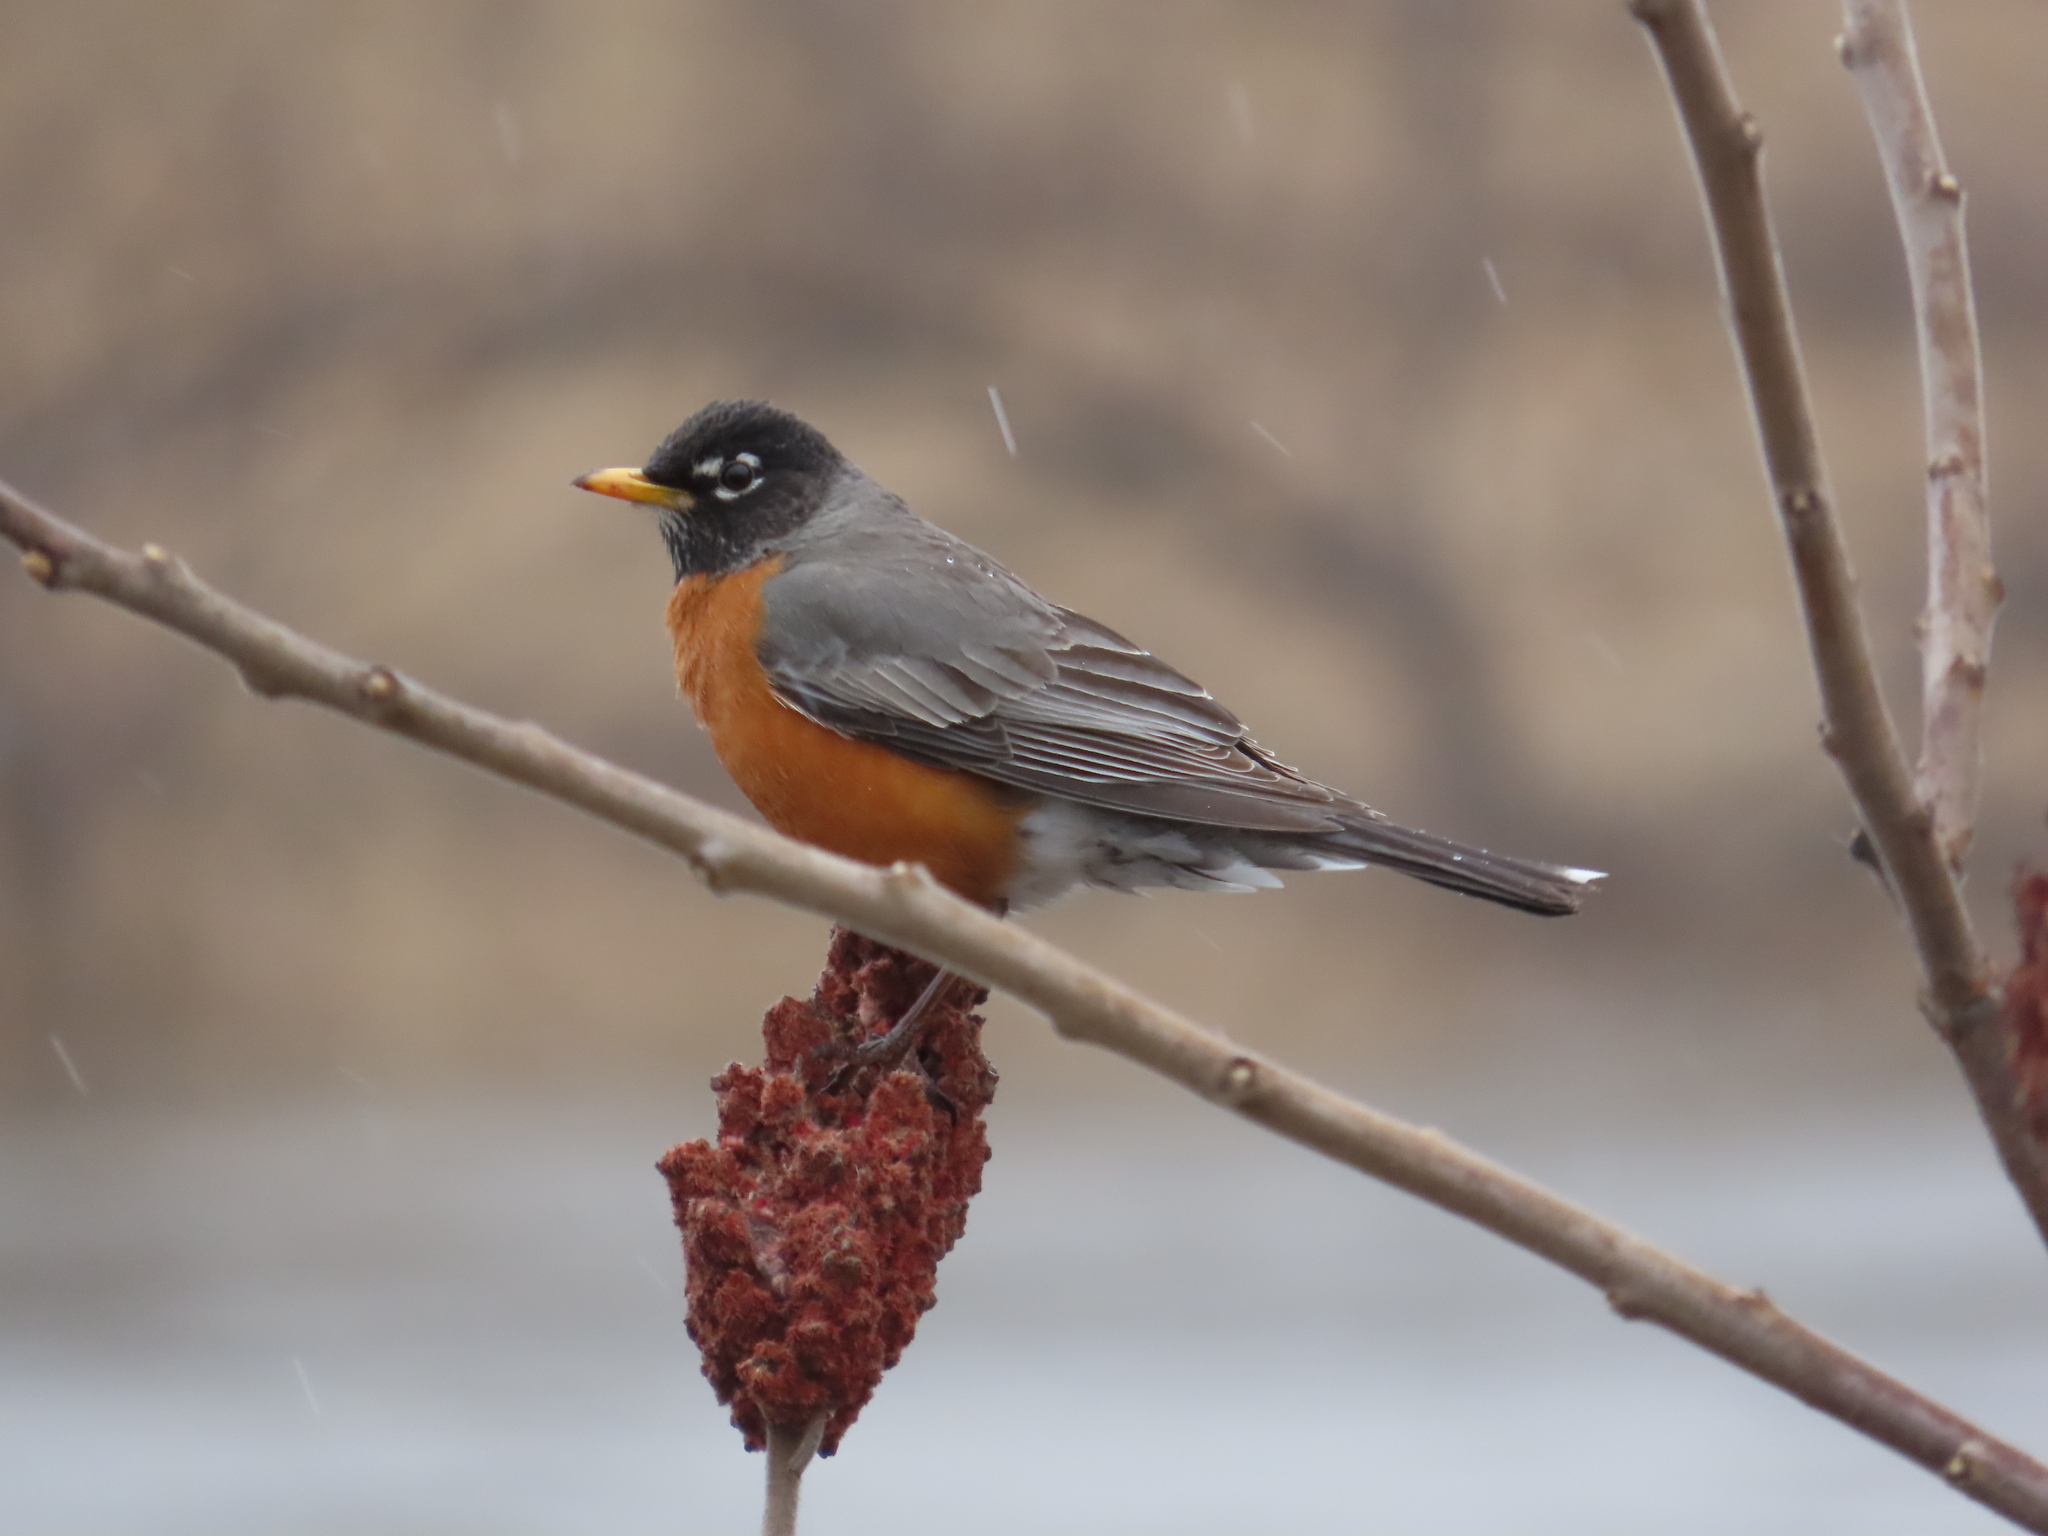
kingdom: Animalia
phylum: Chordata
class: Aves
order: Passeriformes
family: Turdidae
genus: Turdus
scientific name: Turdus migratorius
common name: American robin
